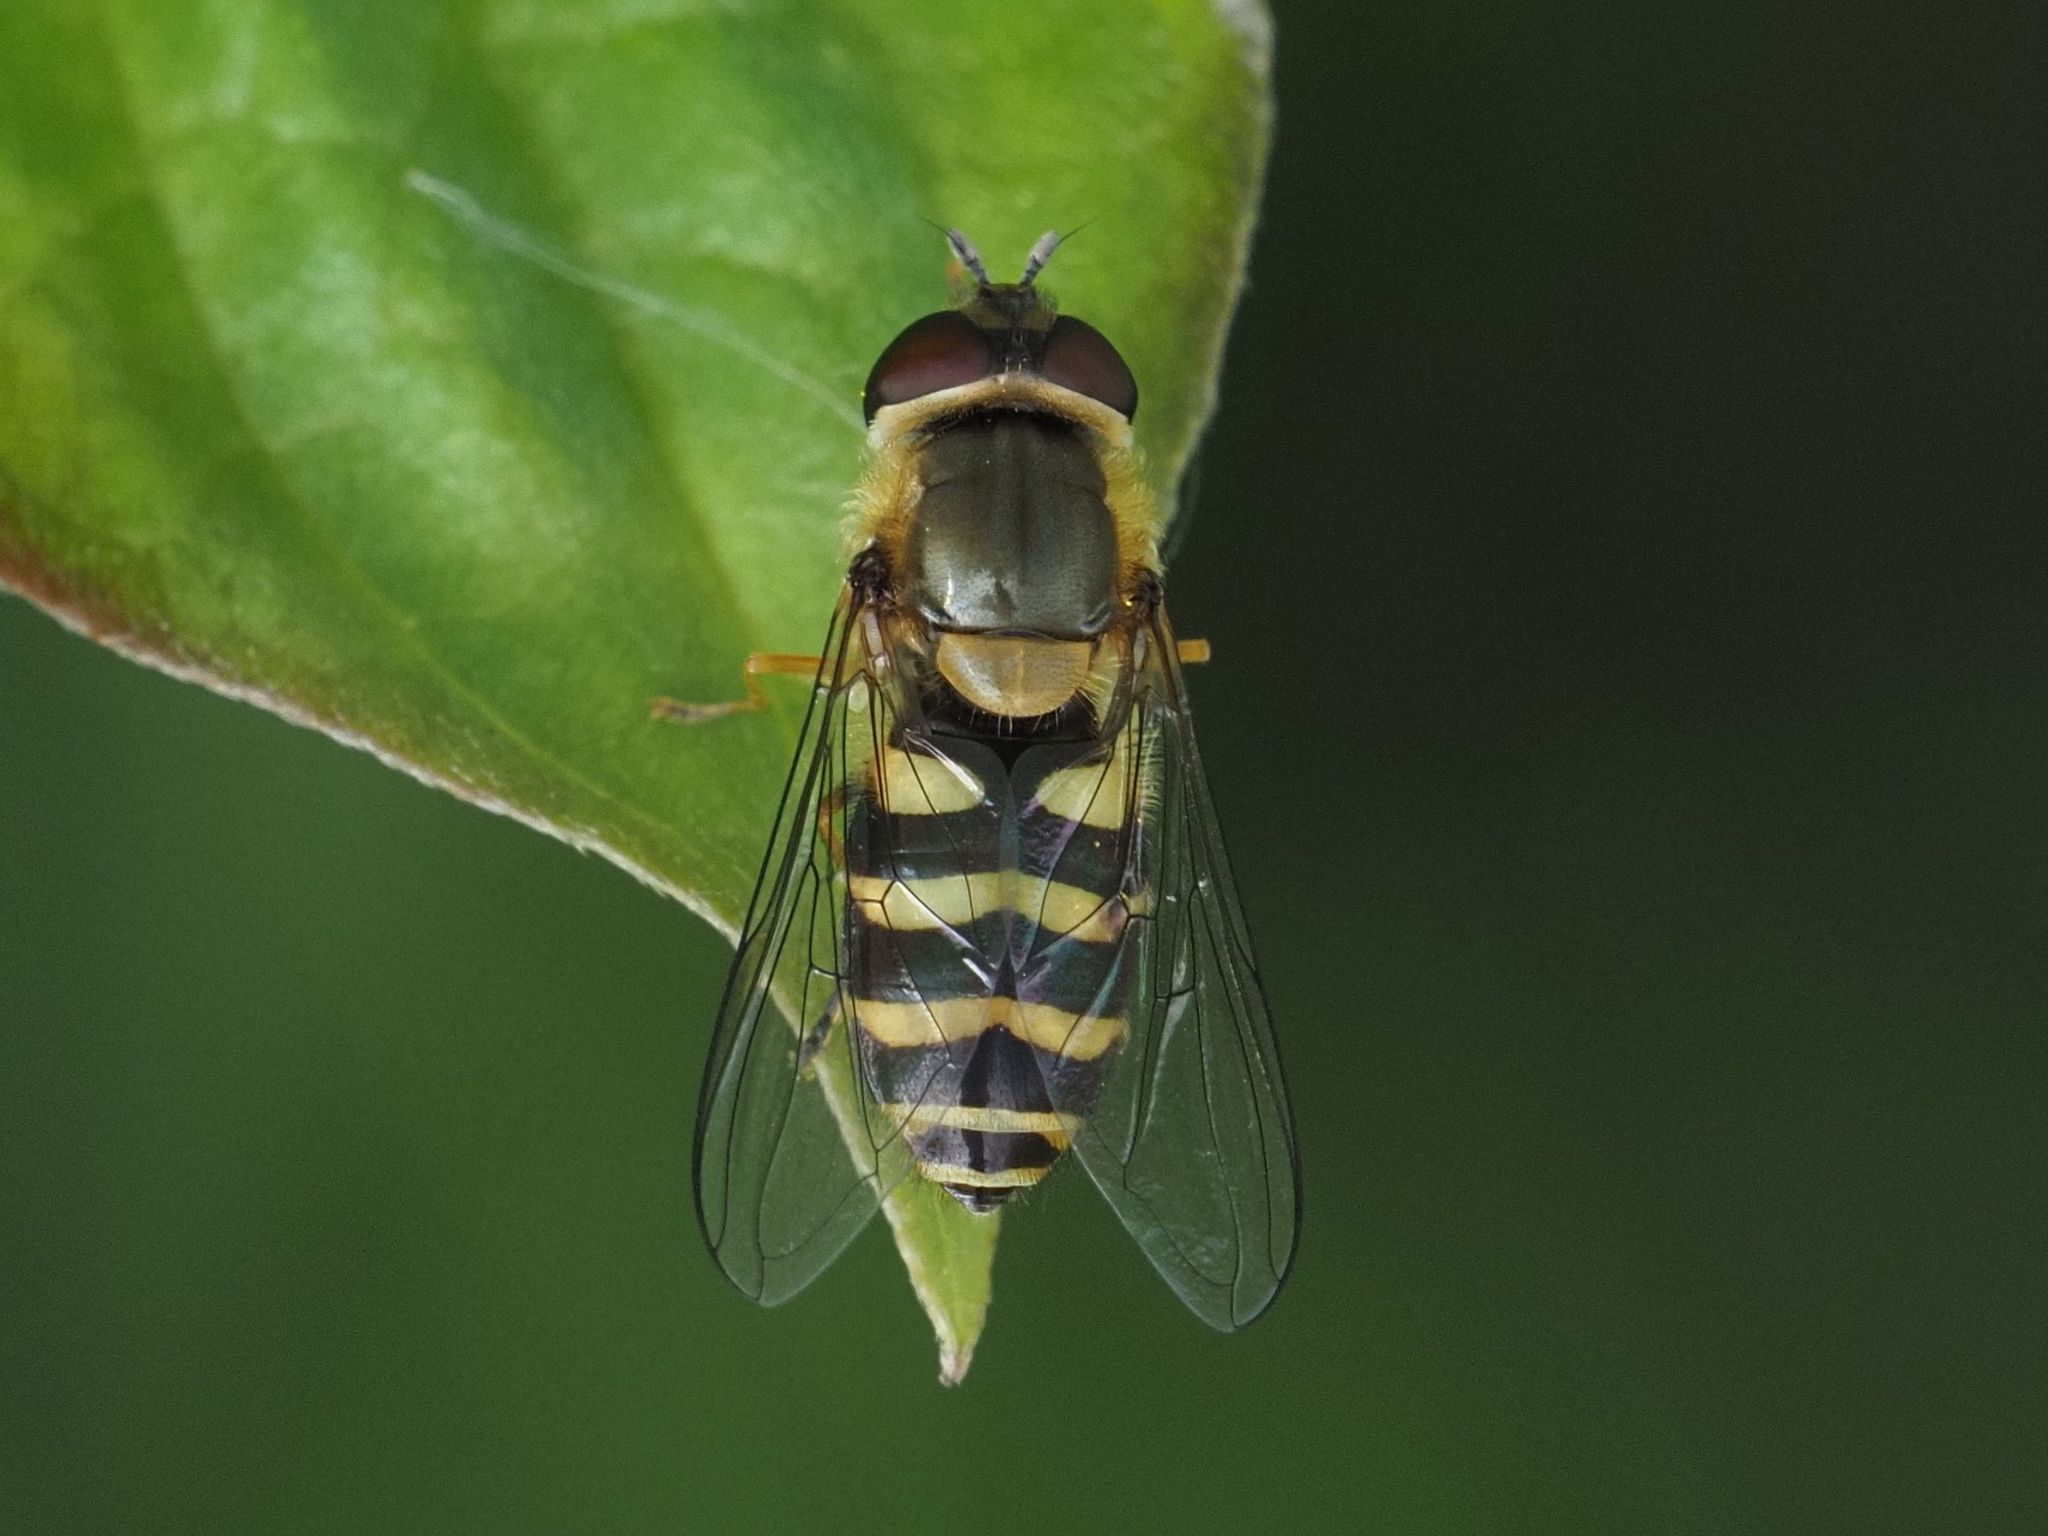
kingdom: Animalia
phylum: Arthropoda
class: Insecta
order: Diptera
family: Syrphidae
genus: Syrphus
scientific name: Syrphus
